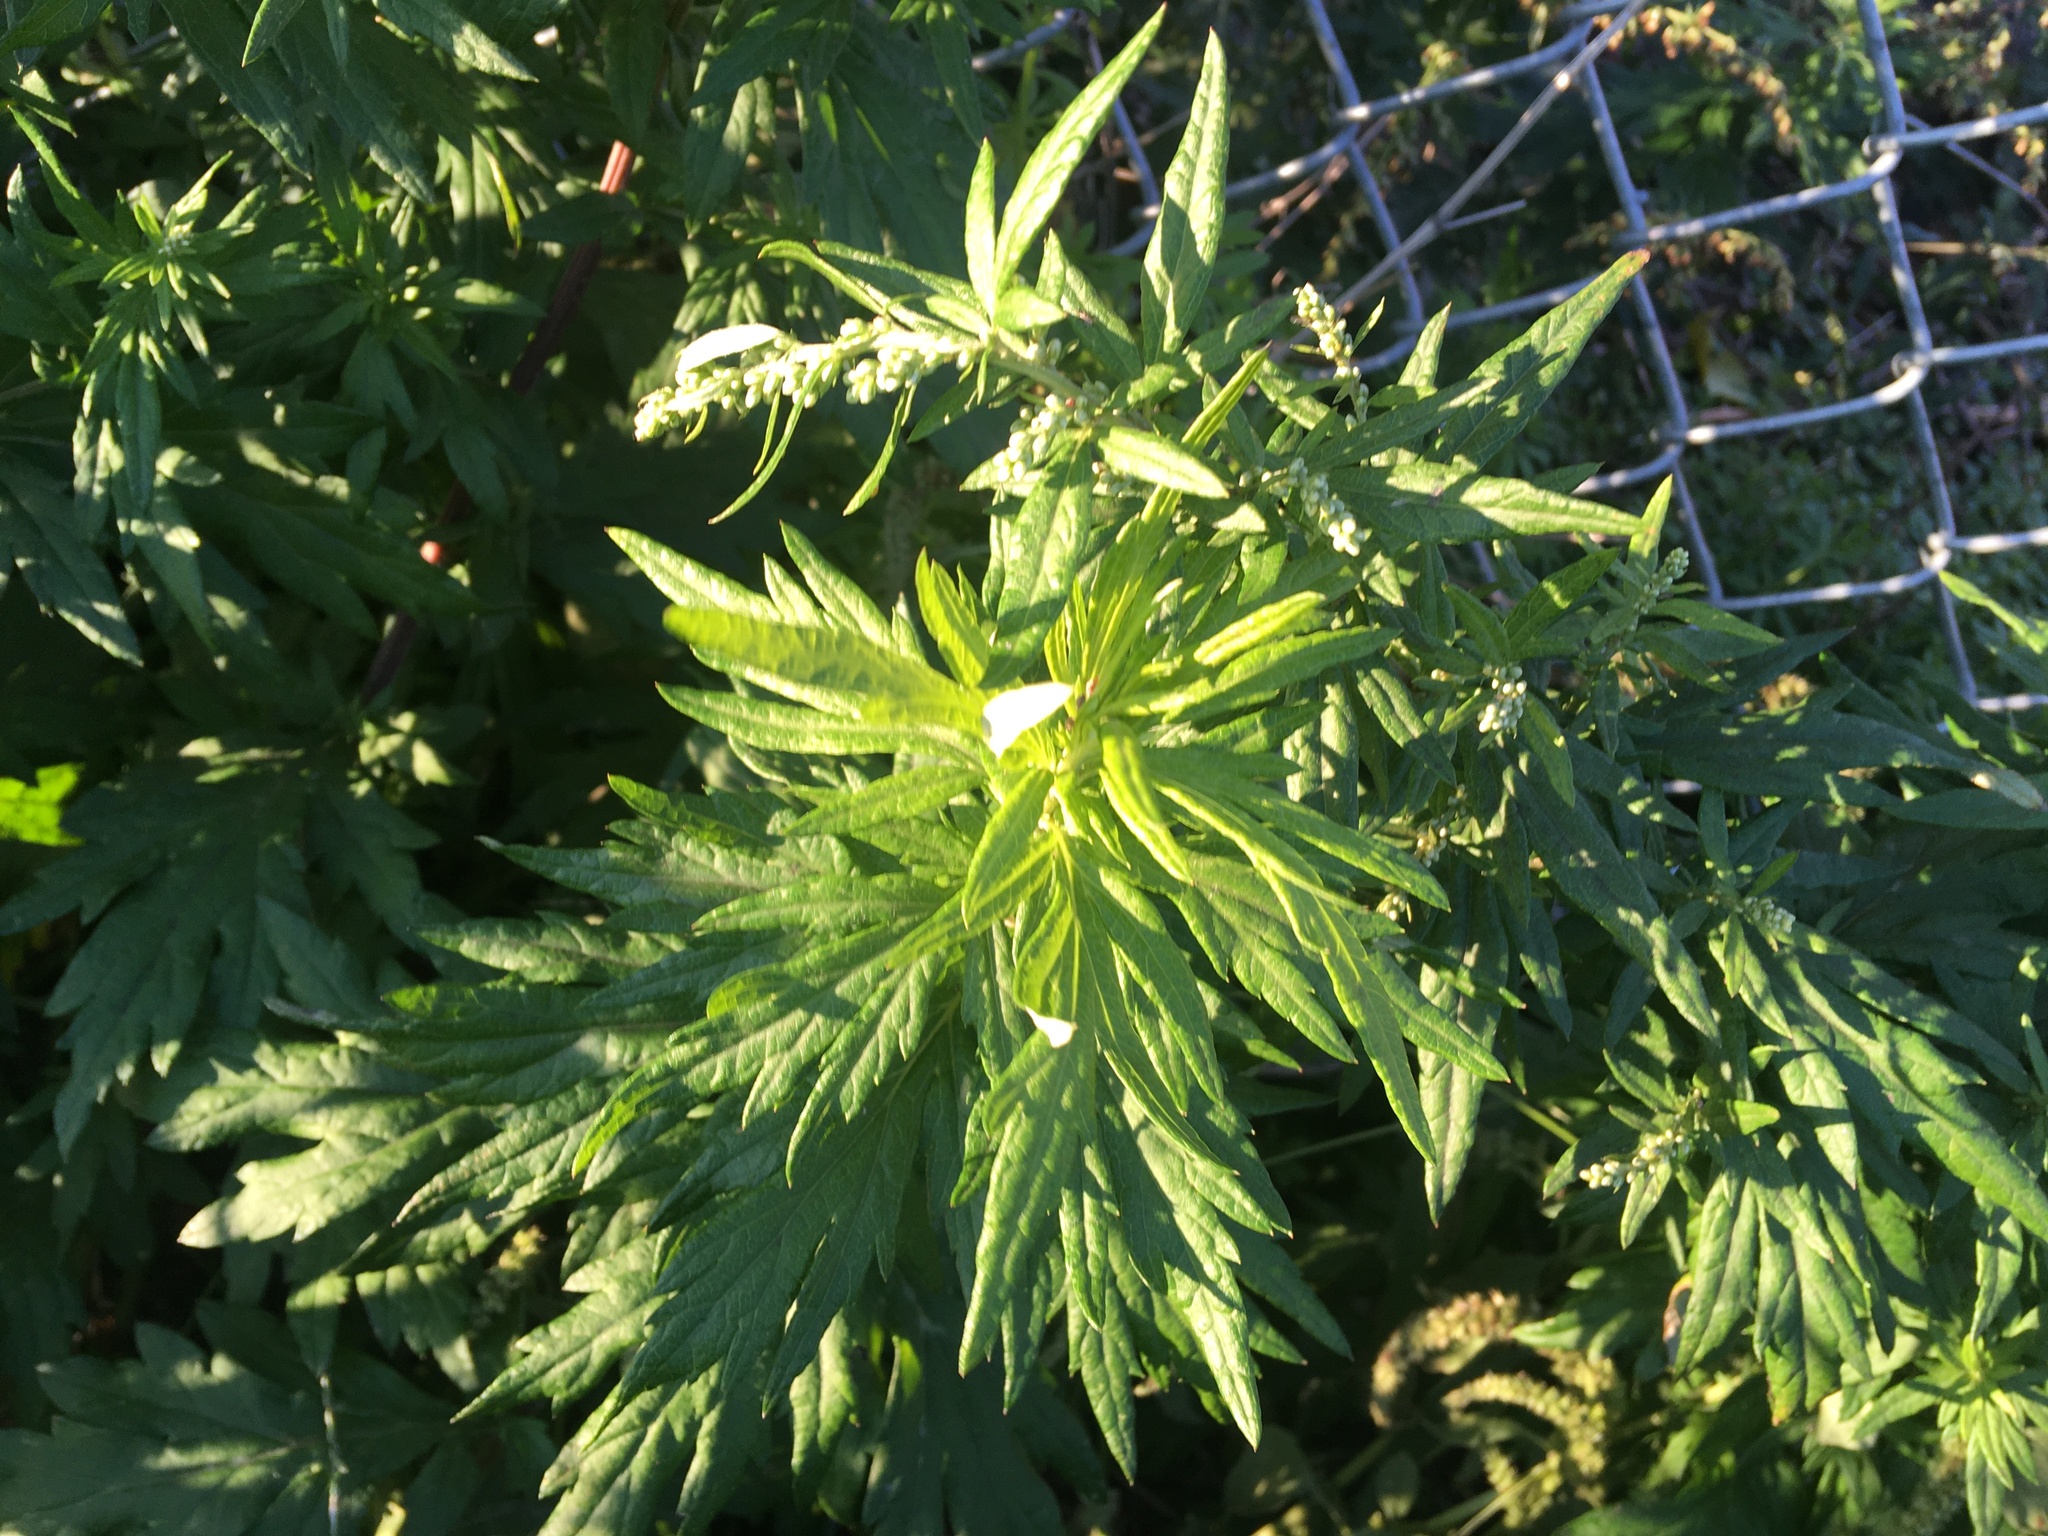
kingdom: Plantae
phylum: Tracheophyta
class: Magnoliopsida
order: Asterales
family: Asteraceae
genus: Artemisia
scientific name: Artemisia vulgaris
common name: Mugwort
